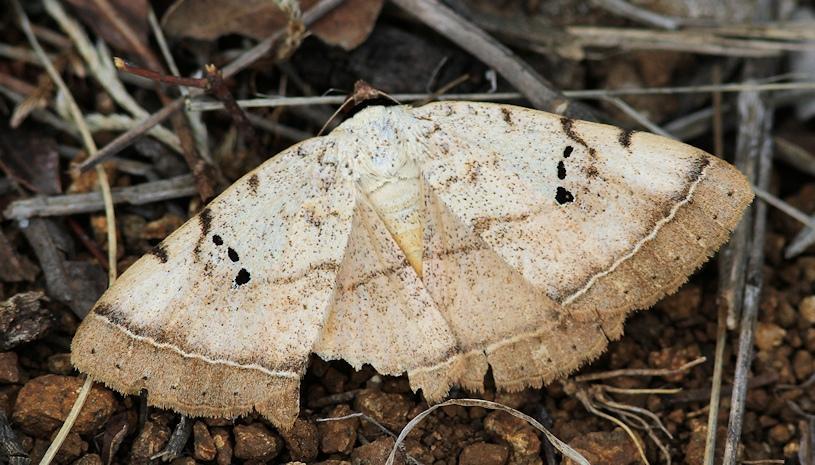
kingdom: Animalia
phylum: Arthropoda
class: Insecta
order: Lepidoptera
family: Erebidae
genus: Hypopyra
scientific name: Hypopyra africana
